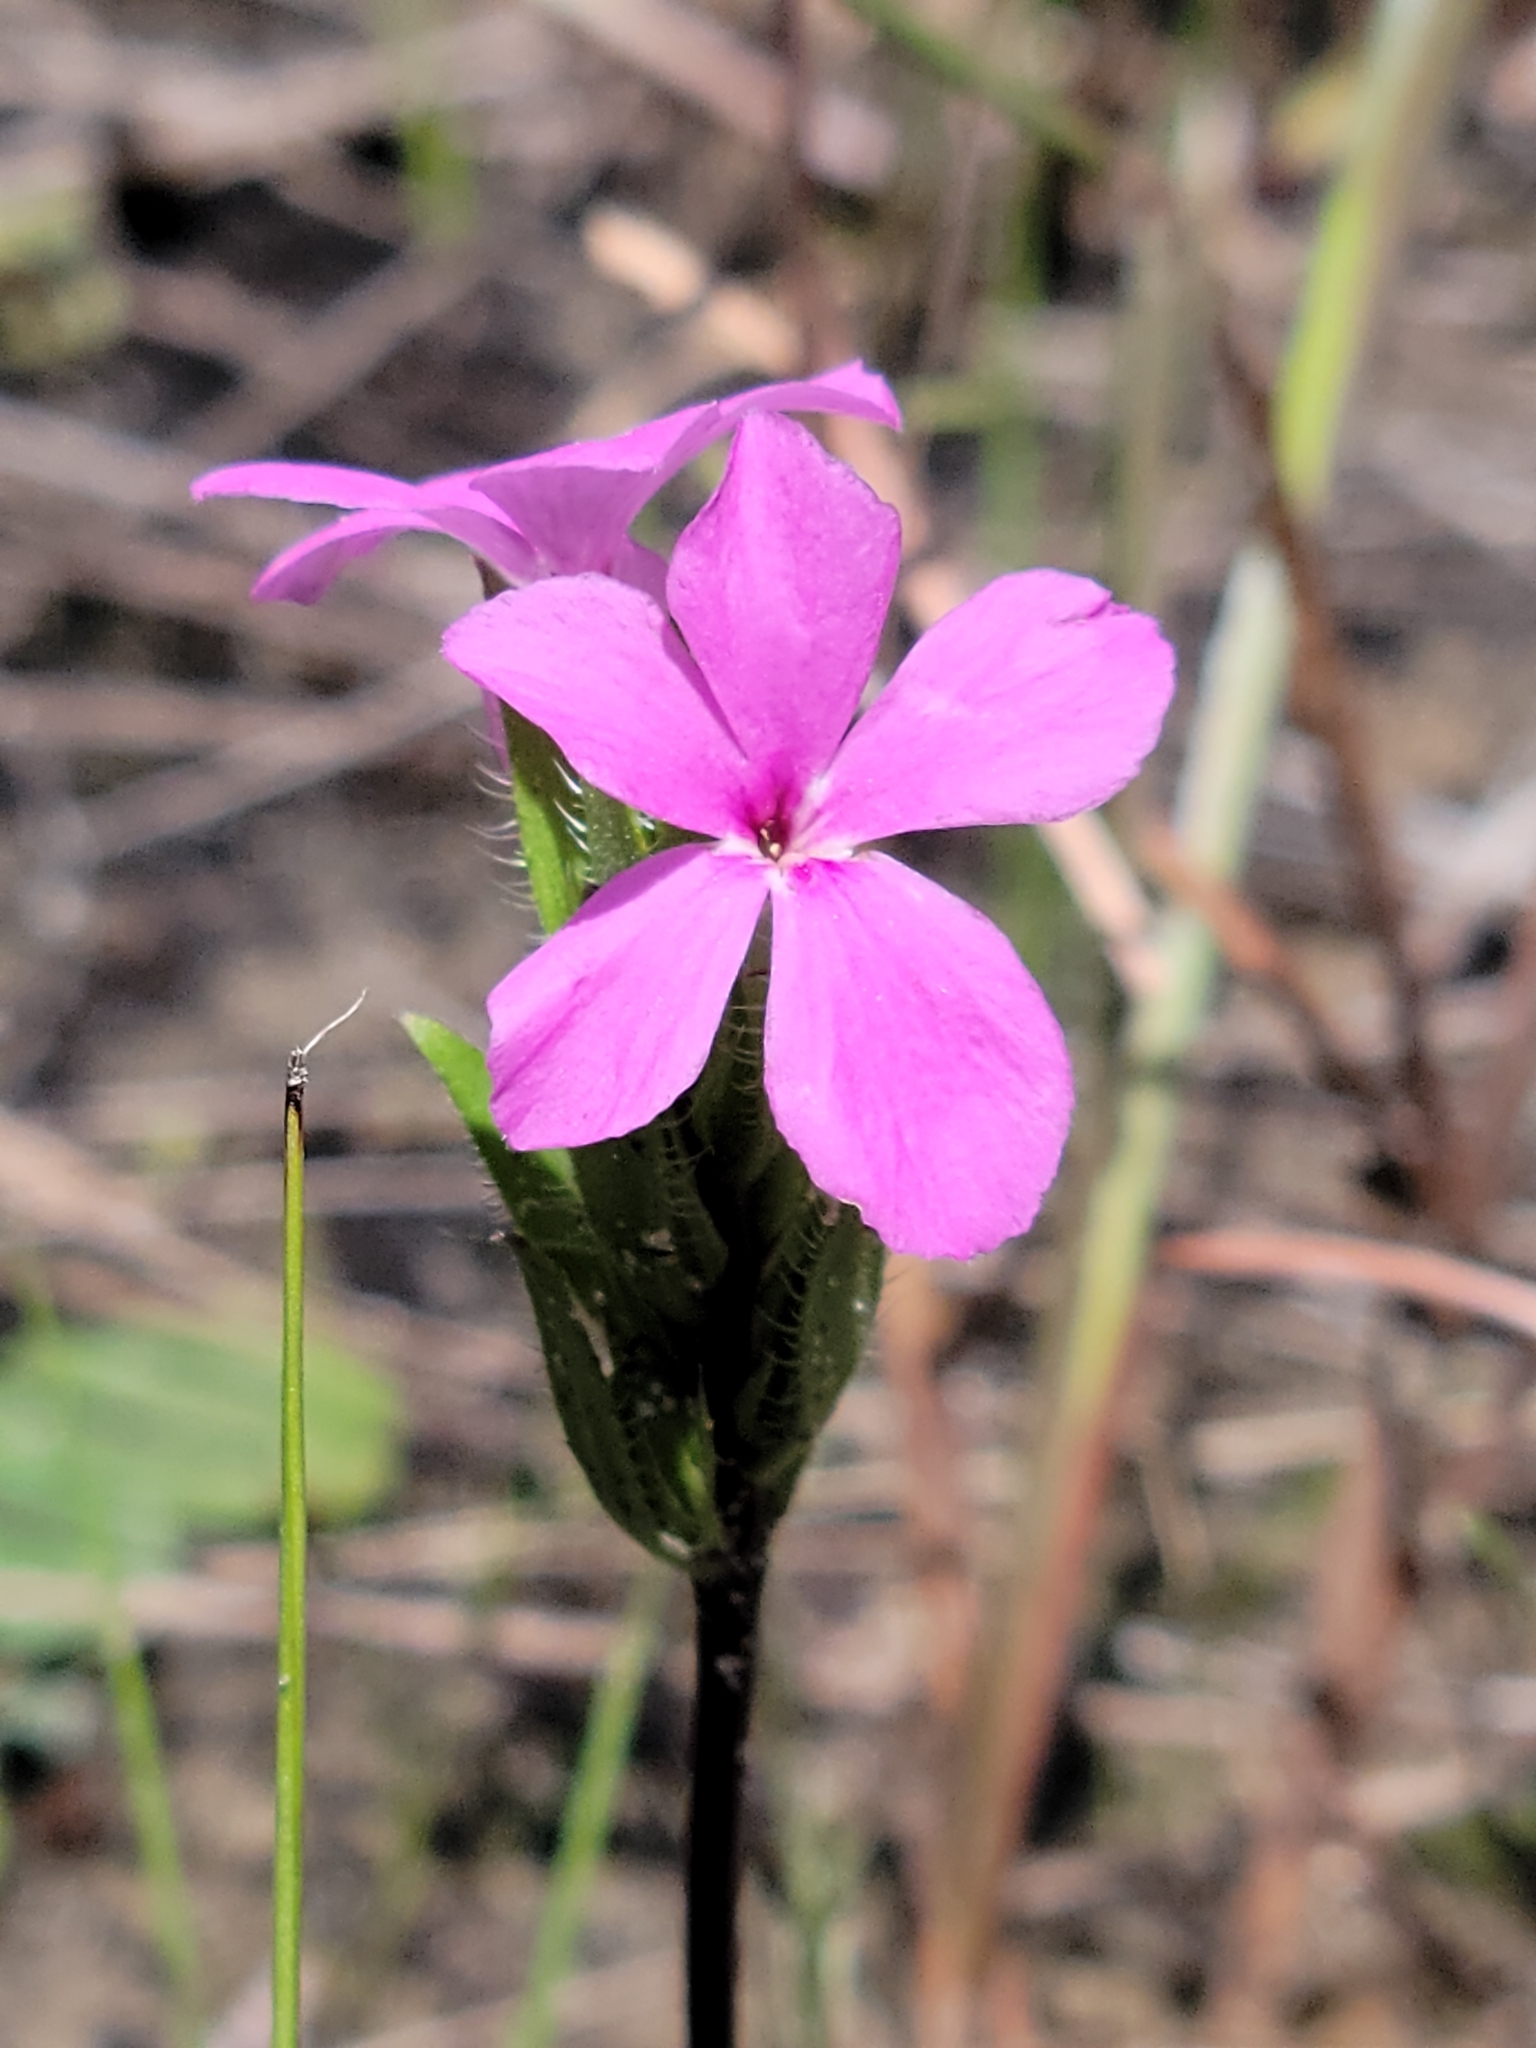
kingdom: Plantae
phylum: Tracheophyta
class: Magnoliopsida
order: Lamiales
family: Acanthaceae
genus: Stenandrium
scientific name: Stenandrium dulce
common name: Pinklet
